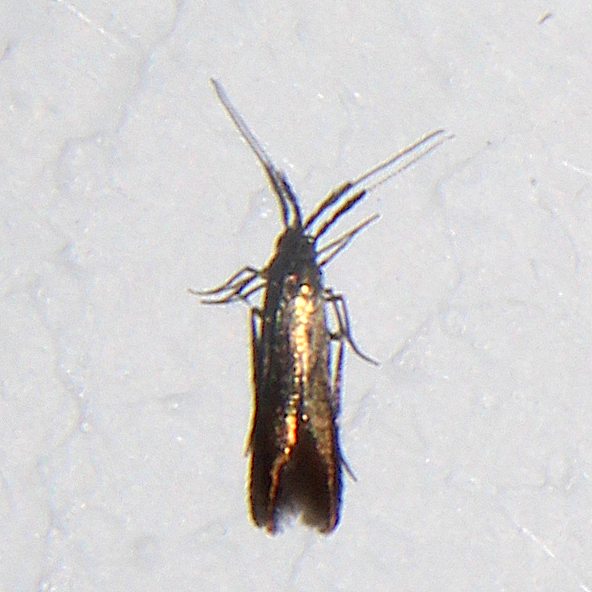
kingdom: Animalia
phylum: Arthropoda
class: Insecta
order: Lepidoptera
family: Coleophoridae
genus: Coleophora
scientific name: Coleophora mayrella
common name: Meadow case-bearer
